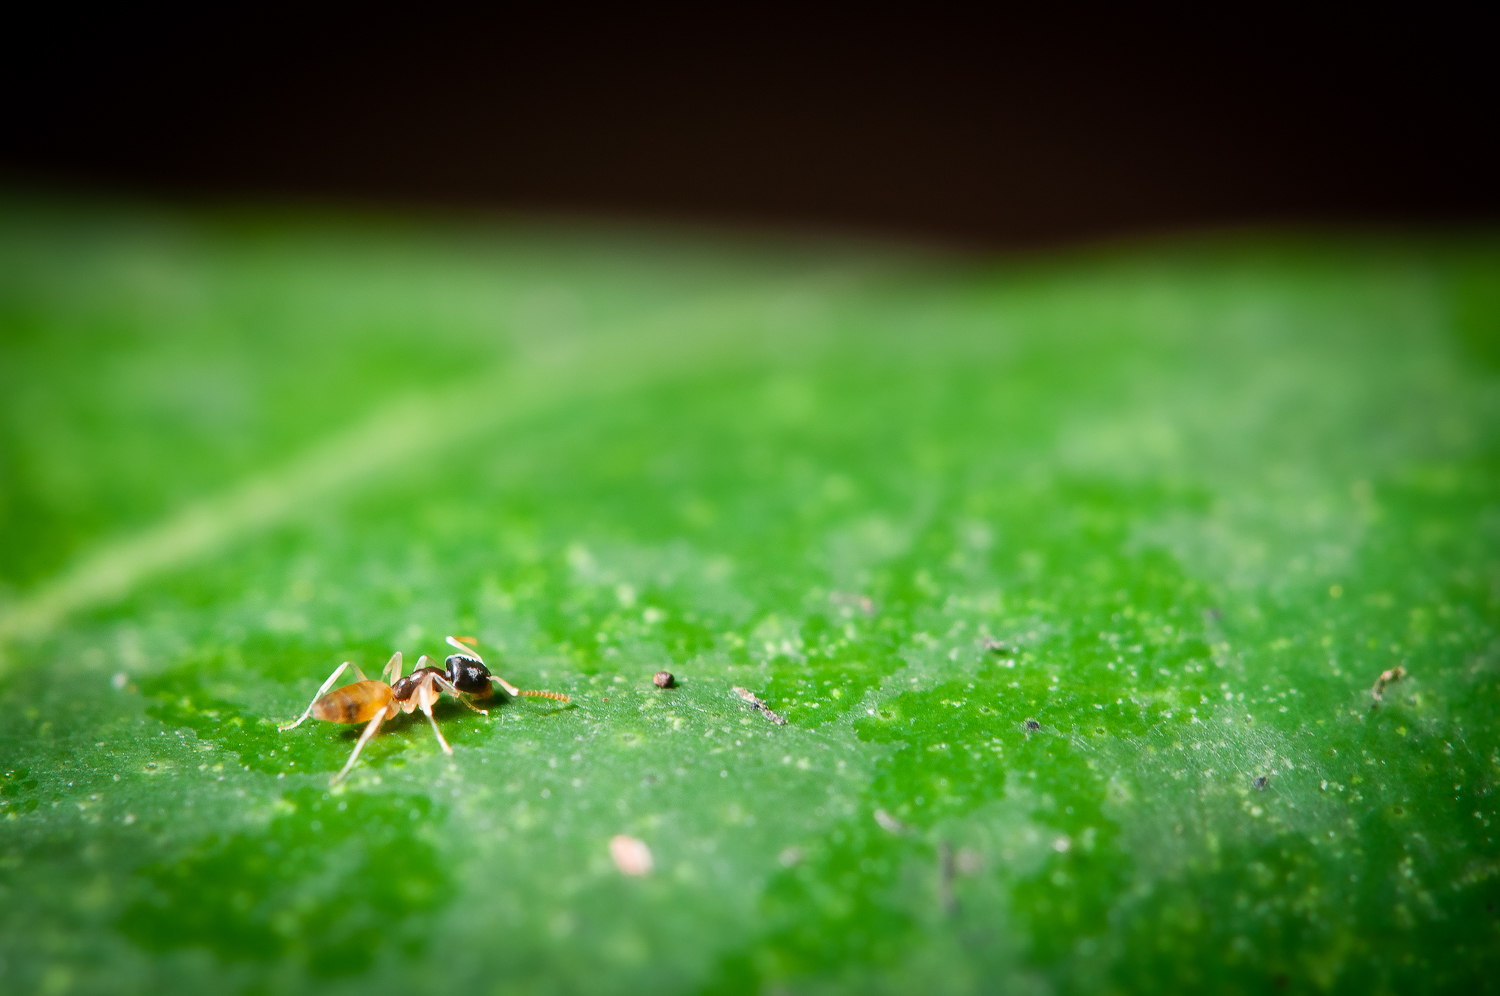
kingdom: Animalia
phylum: Arthropoda
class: Insecta
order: Hymenoptera
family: Formicidae
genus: Tapinoma
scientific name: Tapinoma melanocephalum
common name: Ghost ant
